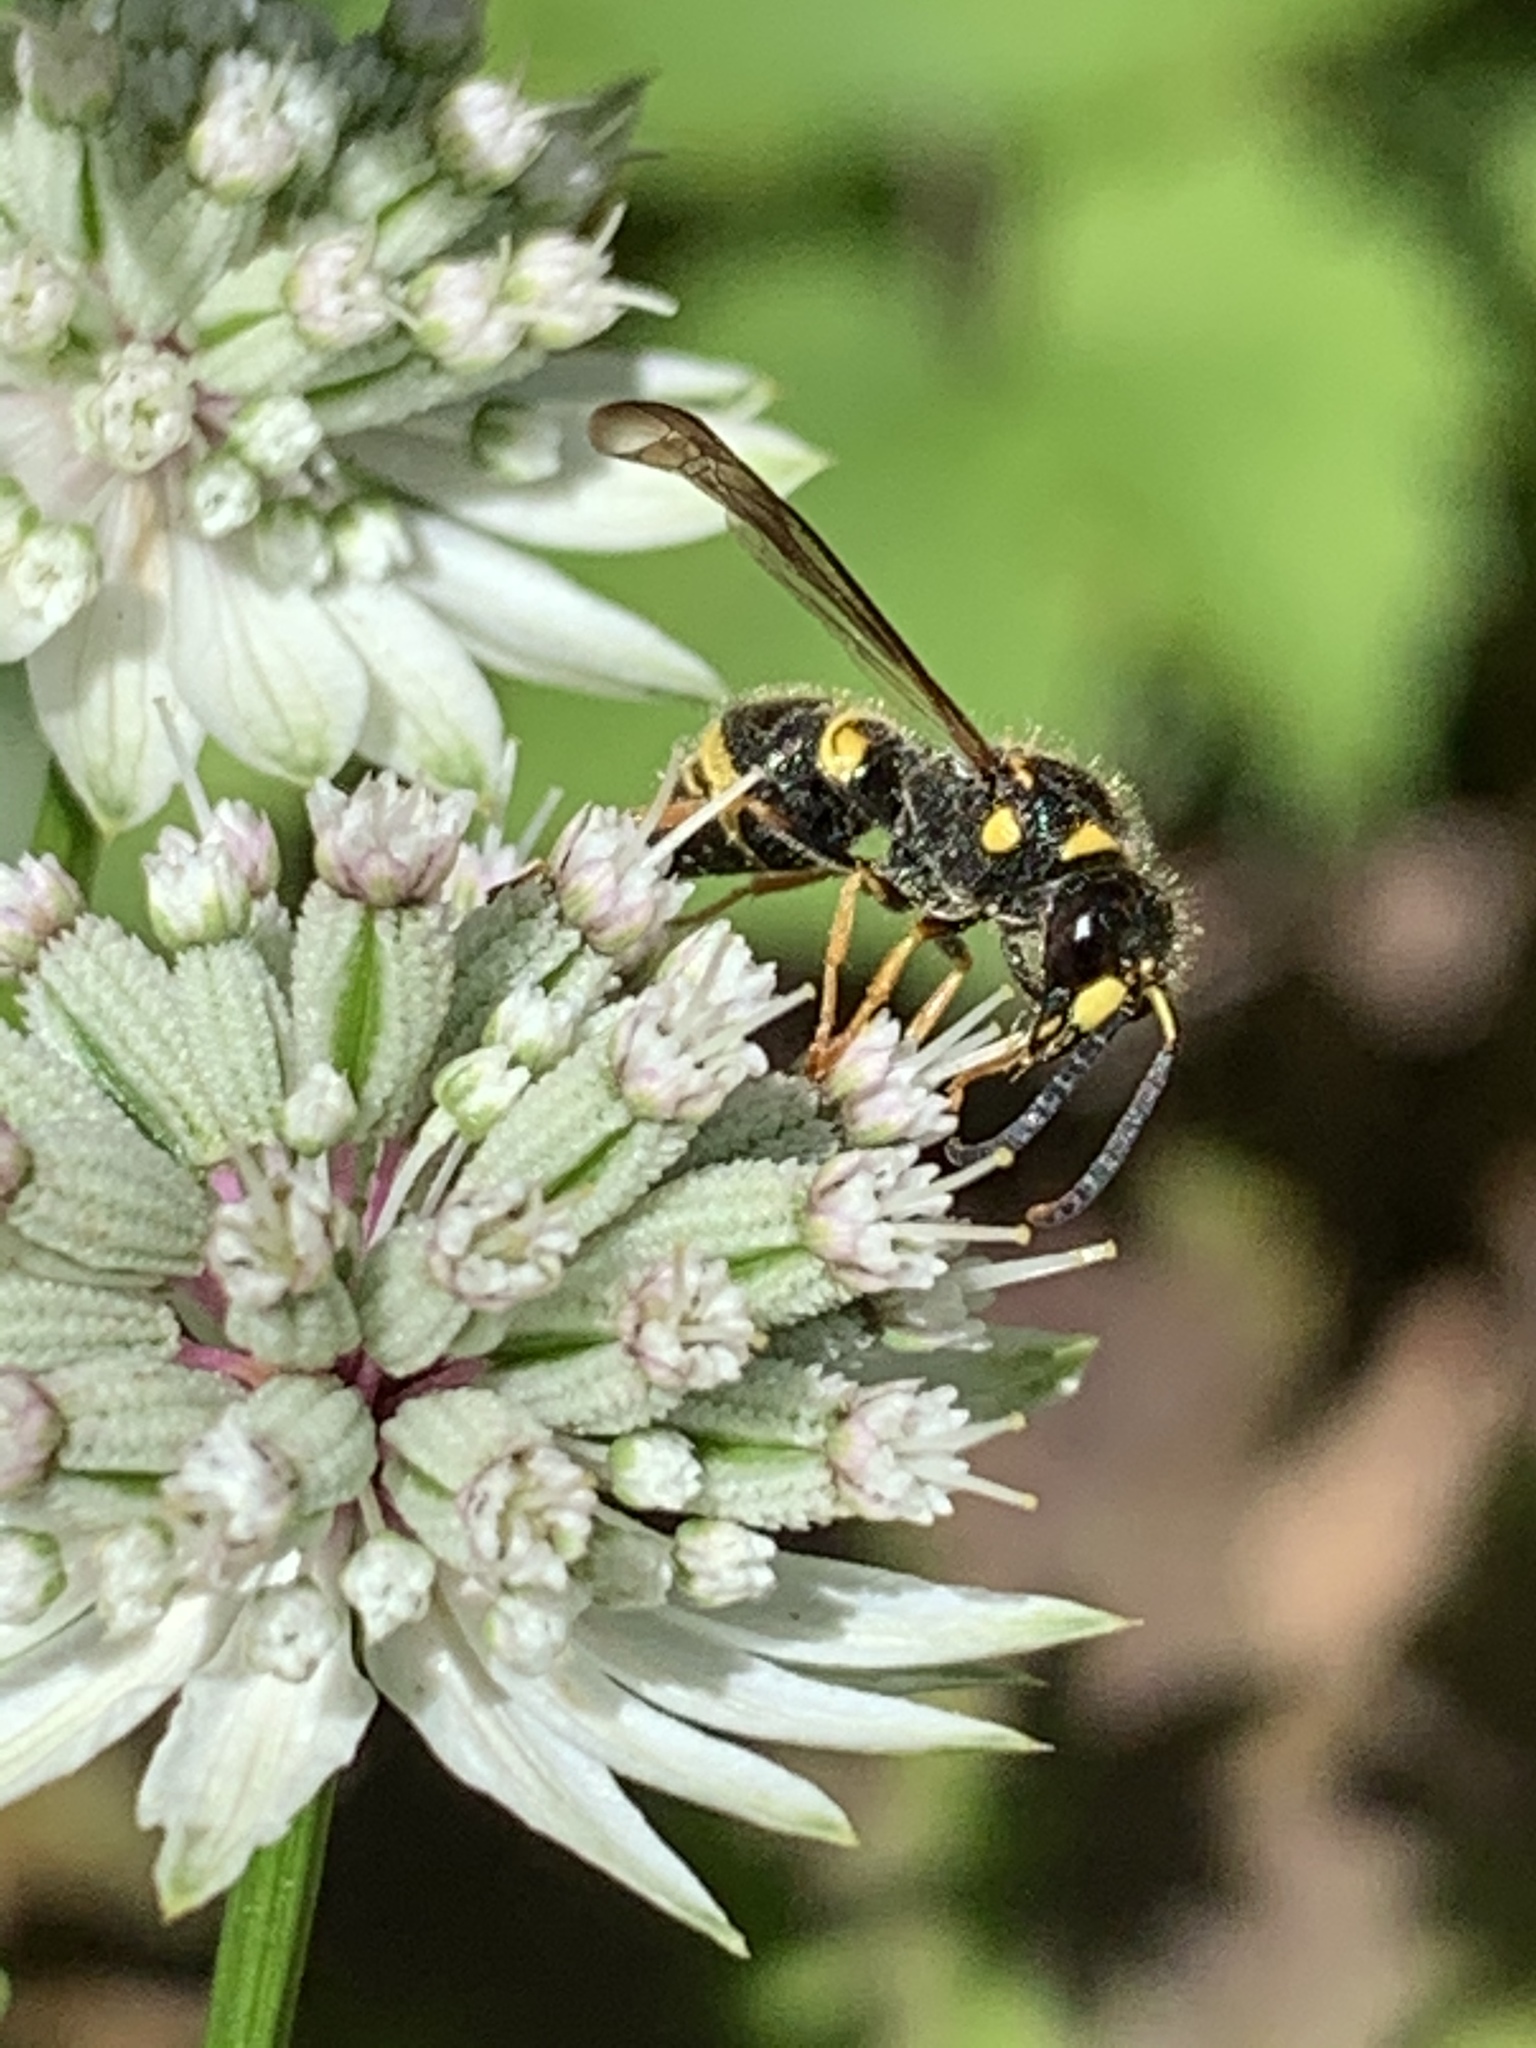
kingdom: Animalia
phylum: Arthropoda
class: Insecta
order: Hymenoptera
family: Vespidae
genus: Ancistrocerus
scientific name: Ancistrocerus campestris
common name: Smiling mason wasp
